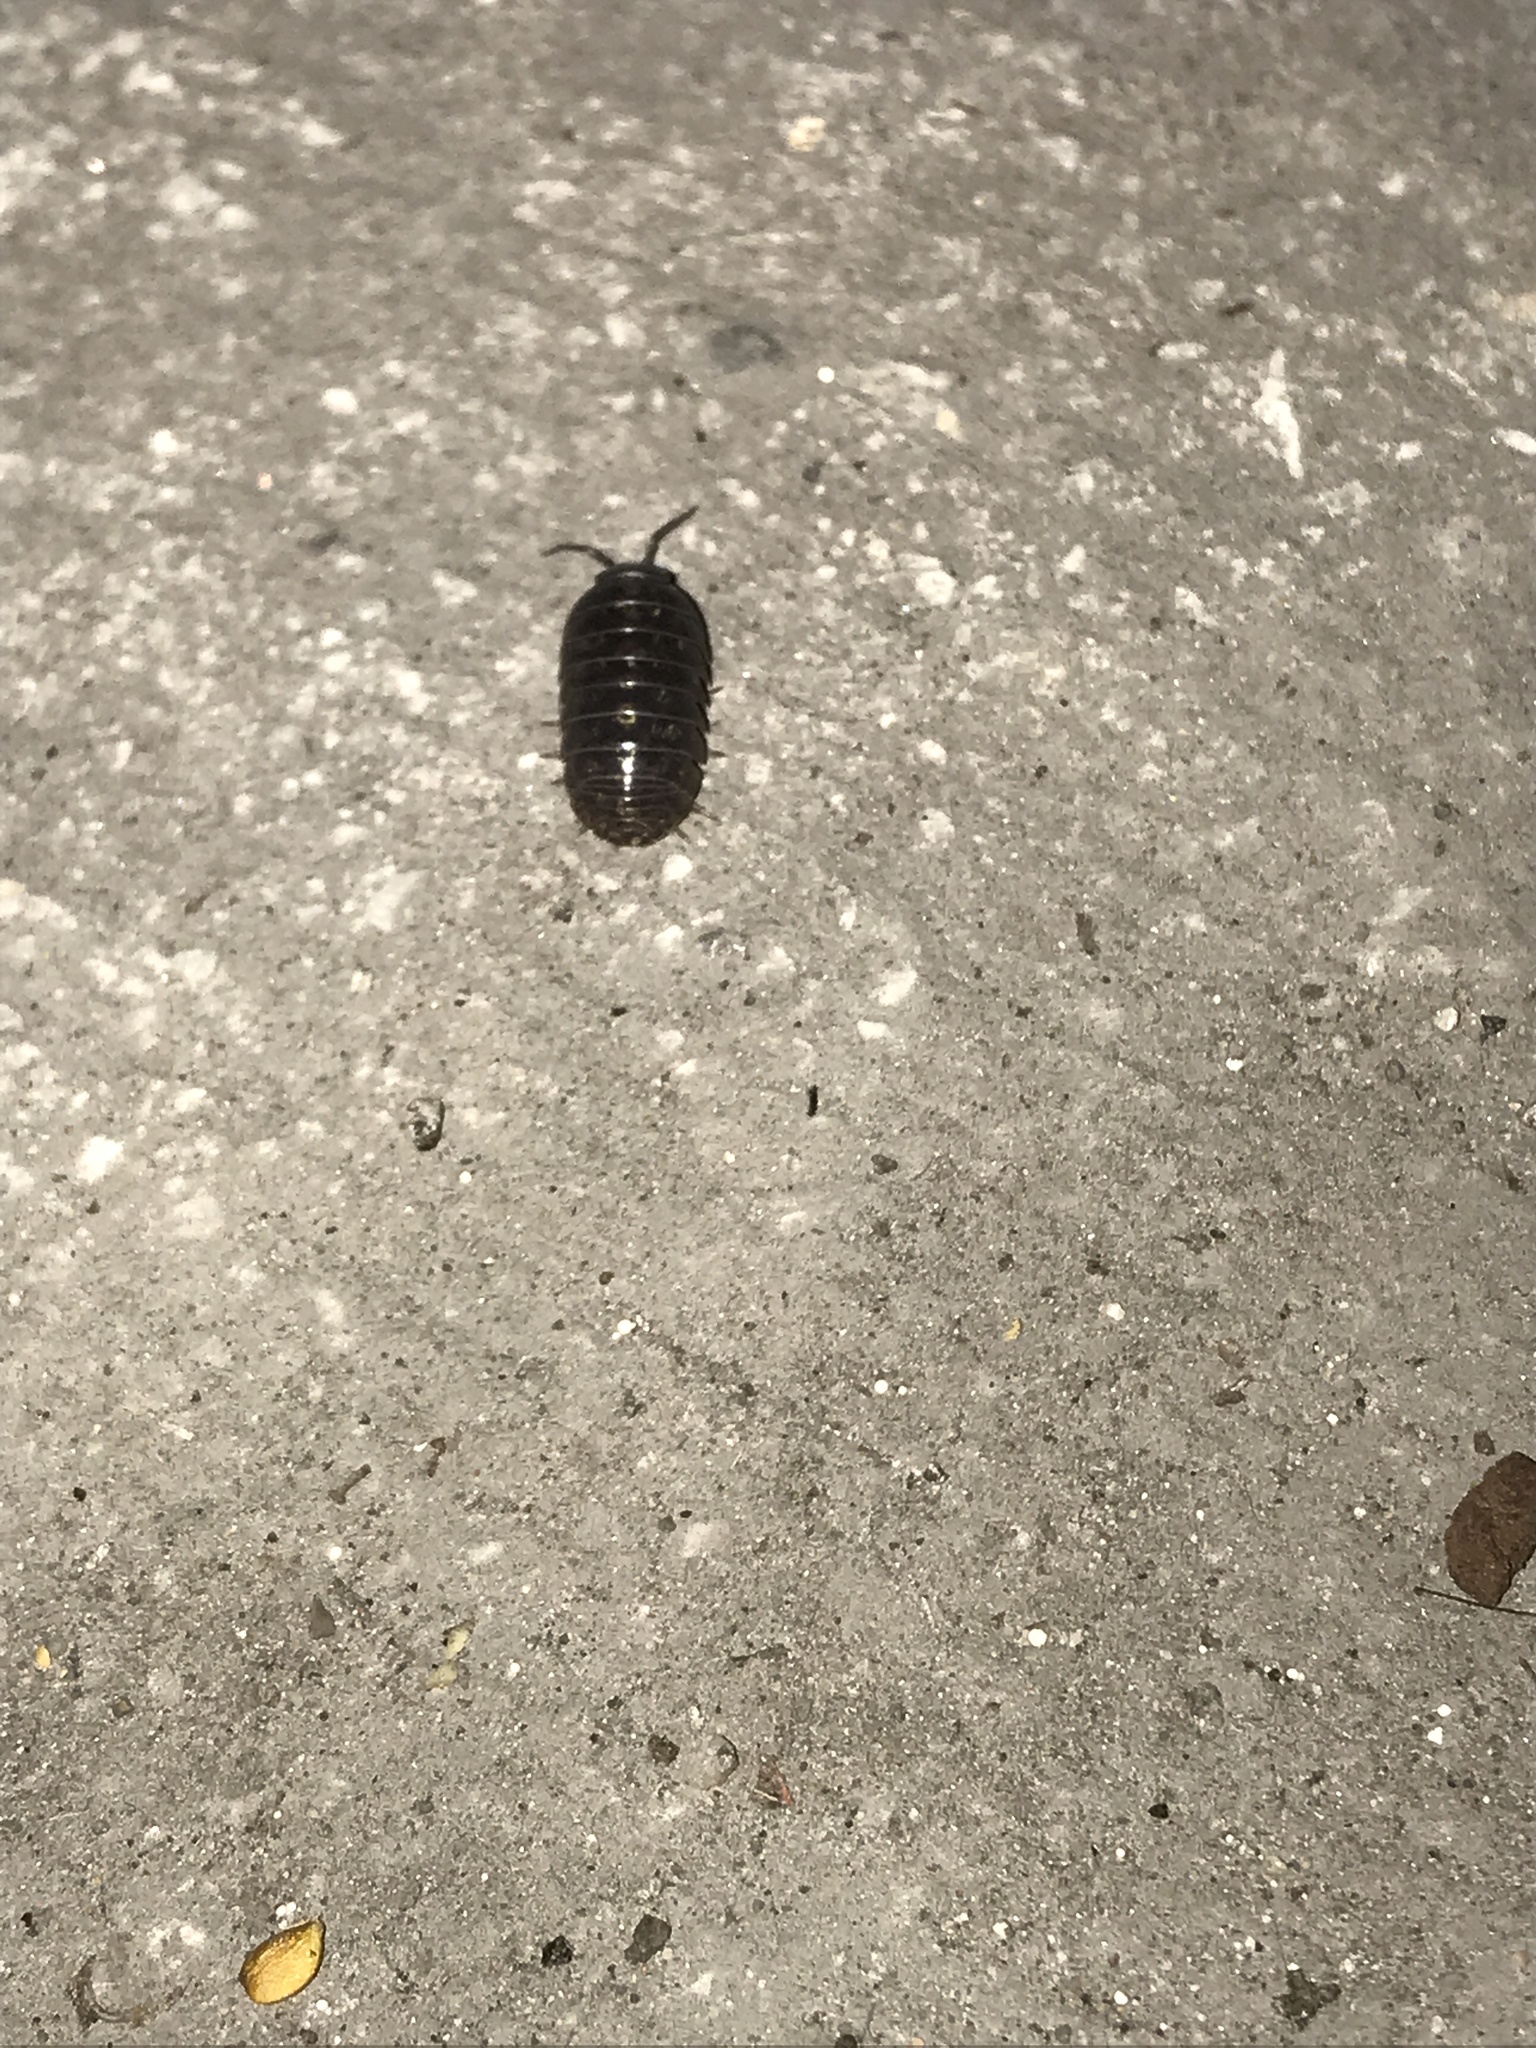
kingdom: Animalia
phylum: Arthropoda
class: Malacostraca
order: Isopoda
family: Armadillidiidae
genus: Armadillidium
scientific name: Armadillidium vulgare
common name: Common pill woodlouse
